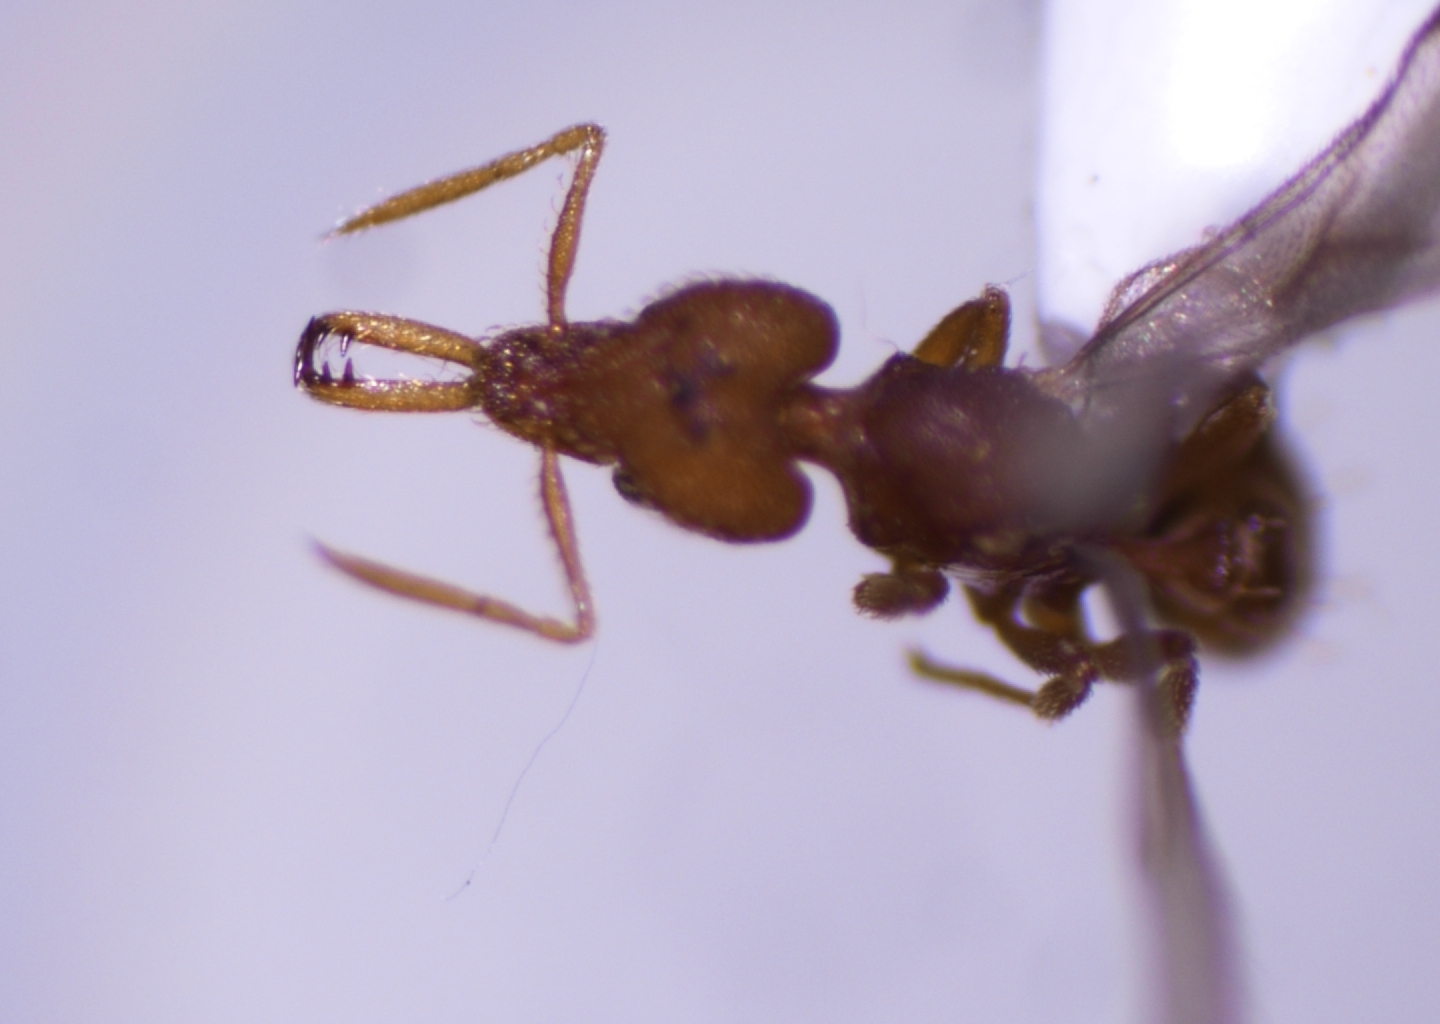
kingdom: Animalia
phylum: Arthropoda
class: Insecta
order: Hymenoptera
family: Formicidae
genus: Strumigenys
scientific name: Strumigenys rogeri
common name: Ant
